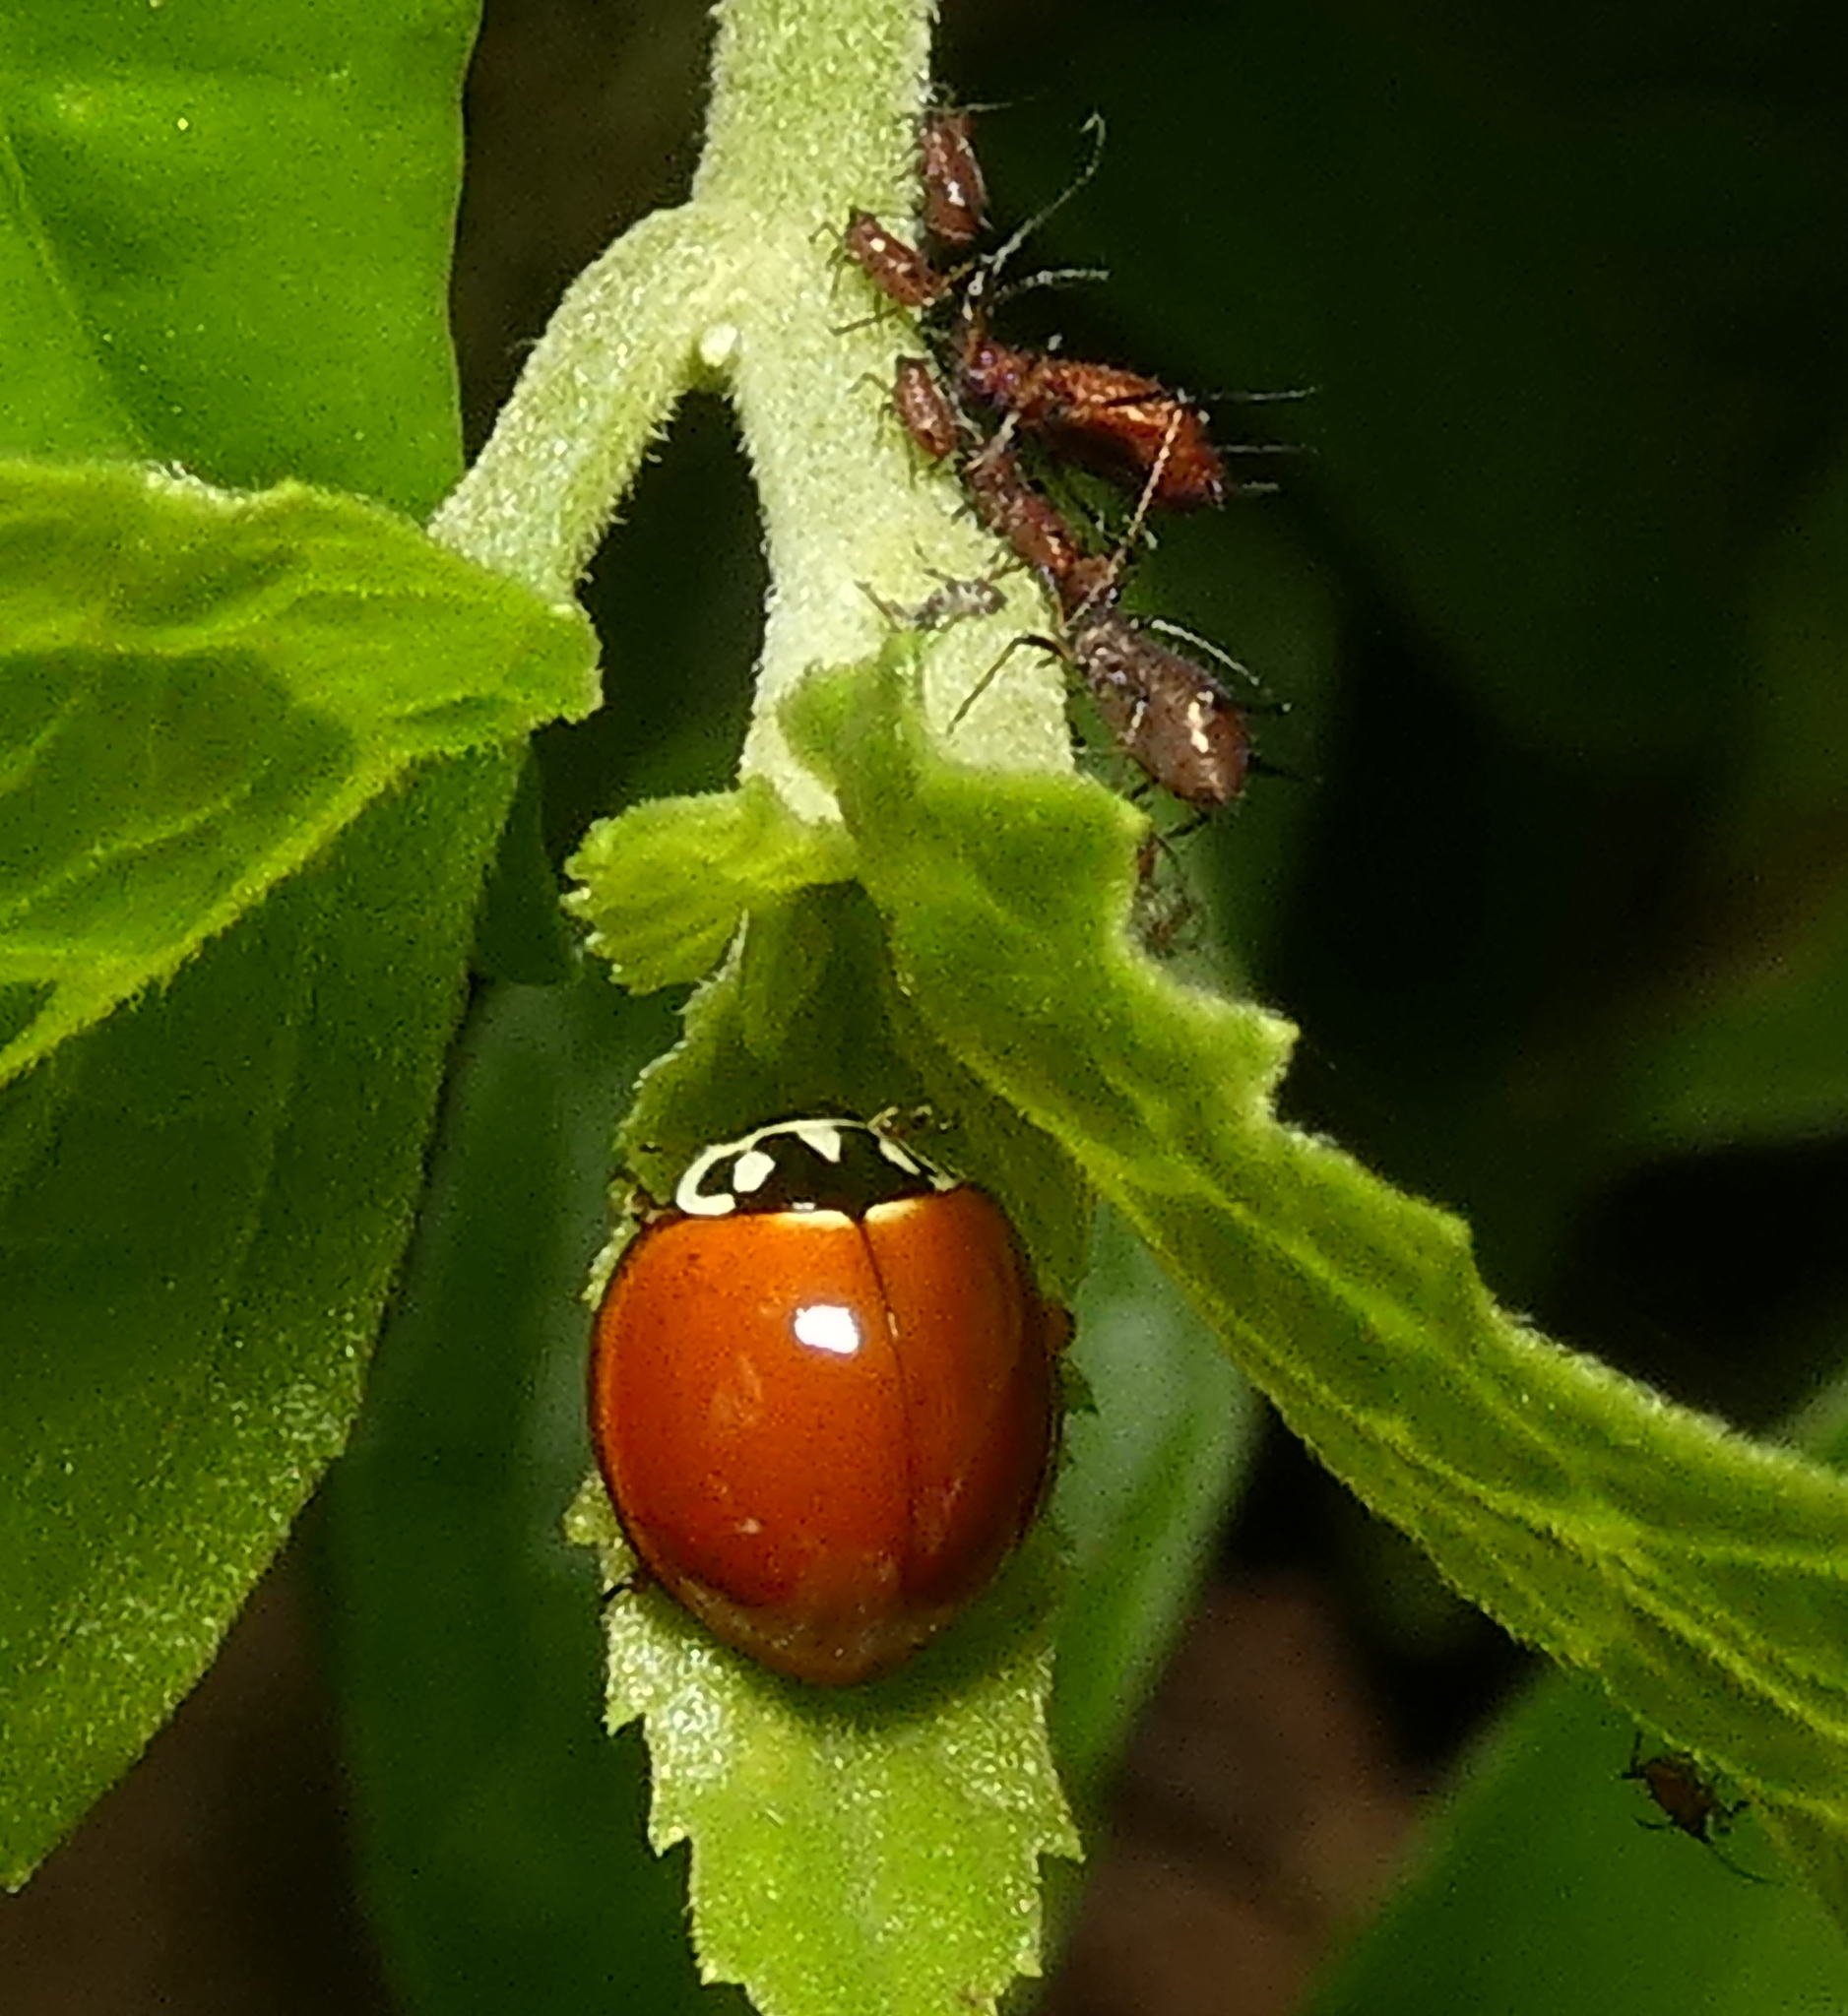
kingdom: Animalia
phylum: Arthropoda
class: Insecta
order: Coleoptera
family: Coccinellidae
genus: Cycloneda
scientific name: Cycloneda sanguinea
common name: Ladybird beetle
